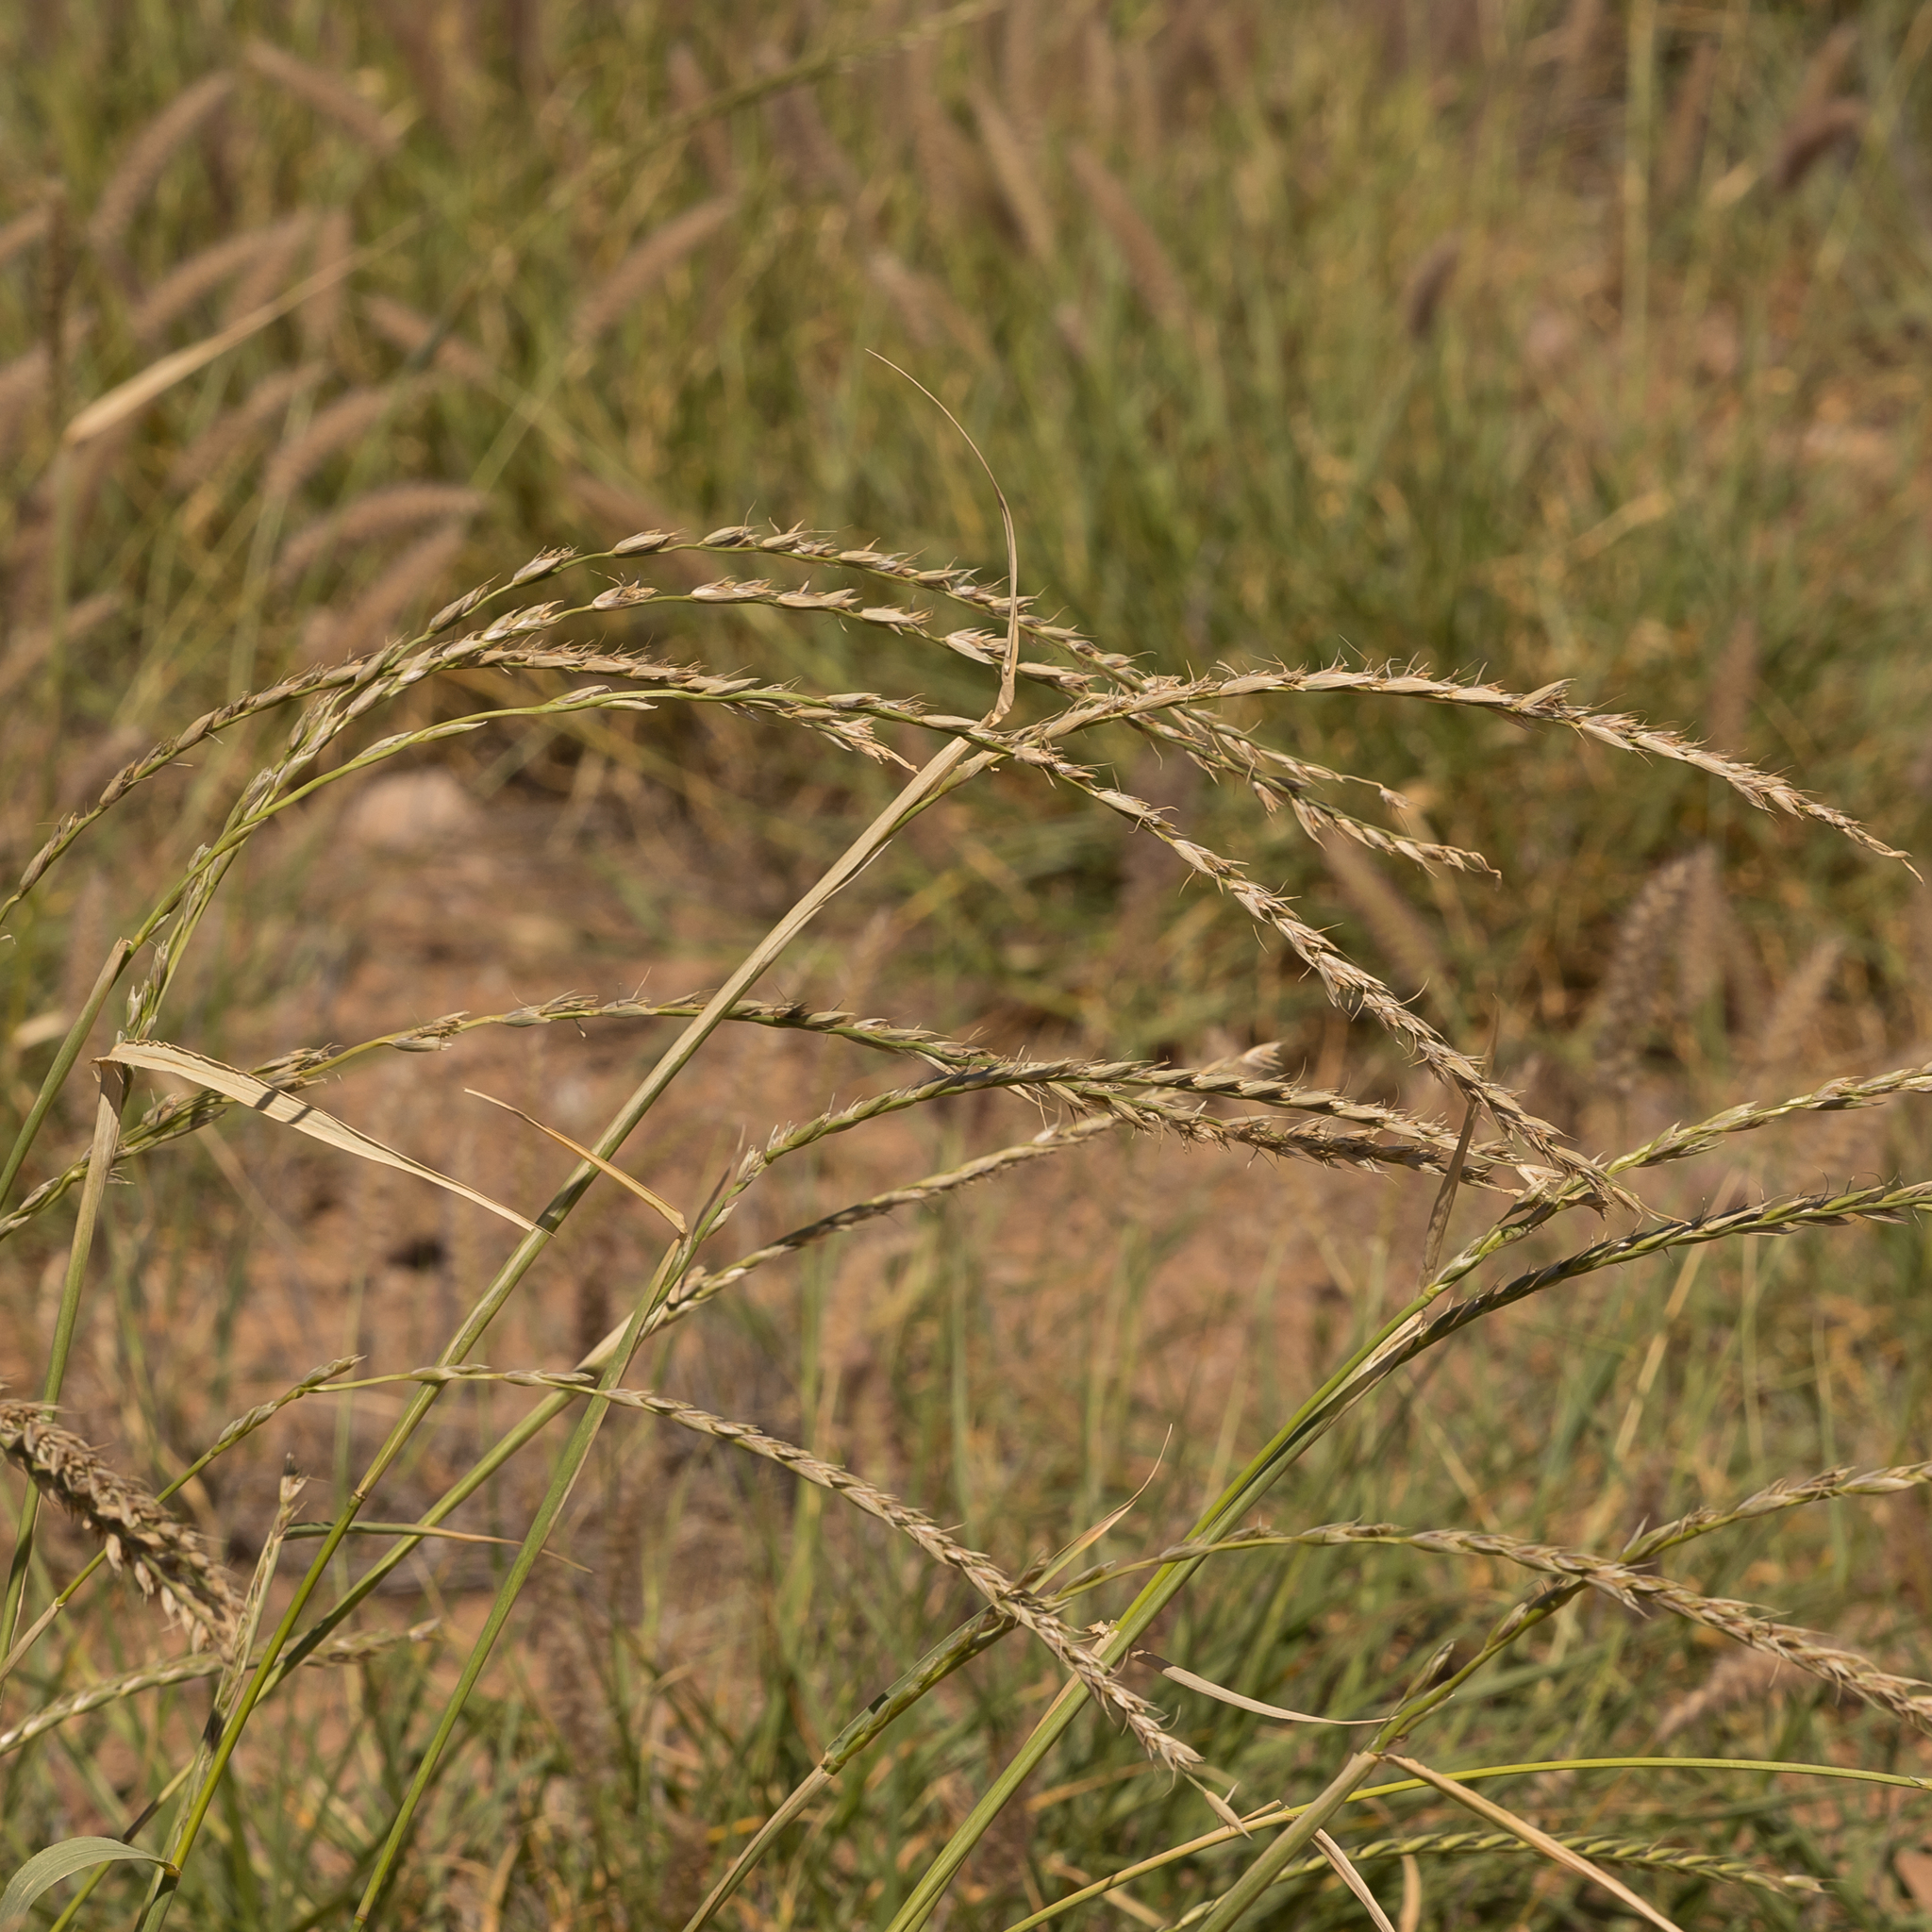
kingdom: Plantae
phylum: Tracheophyta
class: Liliopsida
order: Poales
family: Poaceae
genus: Astrebla
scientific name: Astrebla lappacea
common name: Curly mitchell grass
